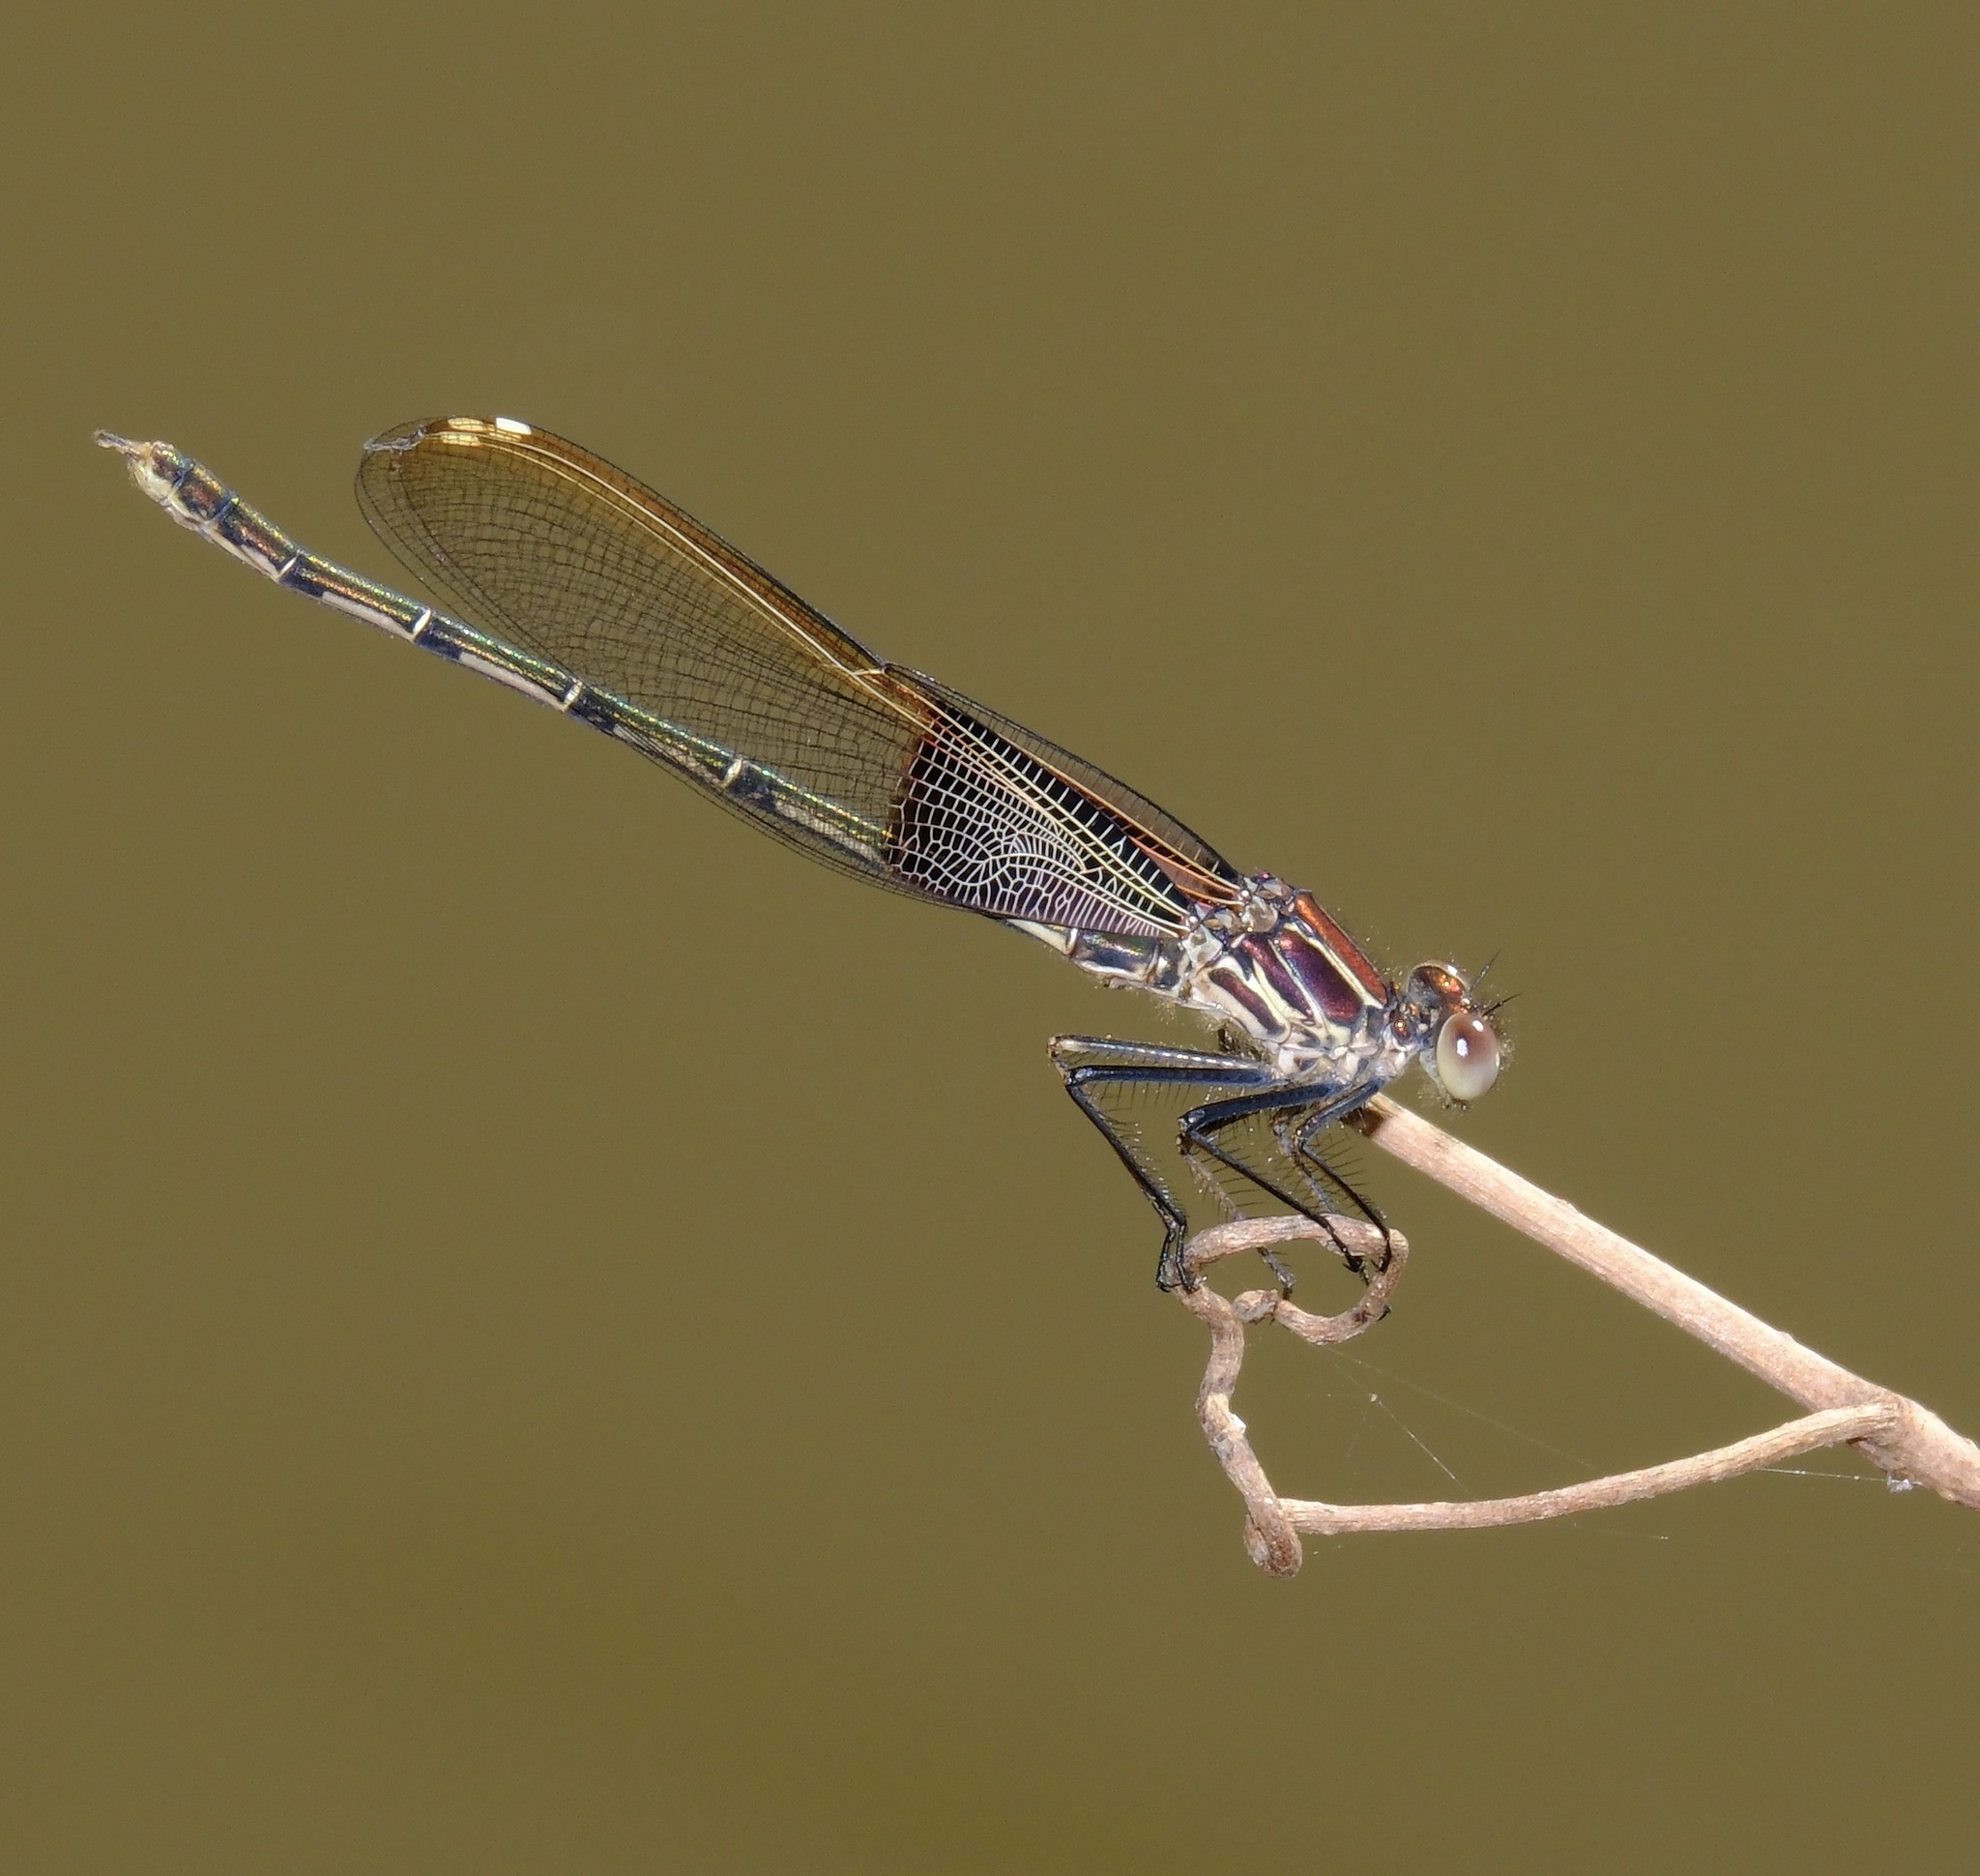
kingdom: Animalia
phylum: Arthropoda
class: Insecta
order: Odonata
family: Calopterygidae
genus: Hetaerina
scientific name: Hetaerina americana
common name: American rubyspot
